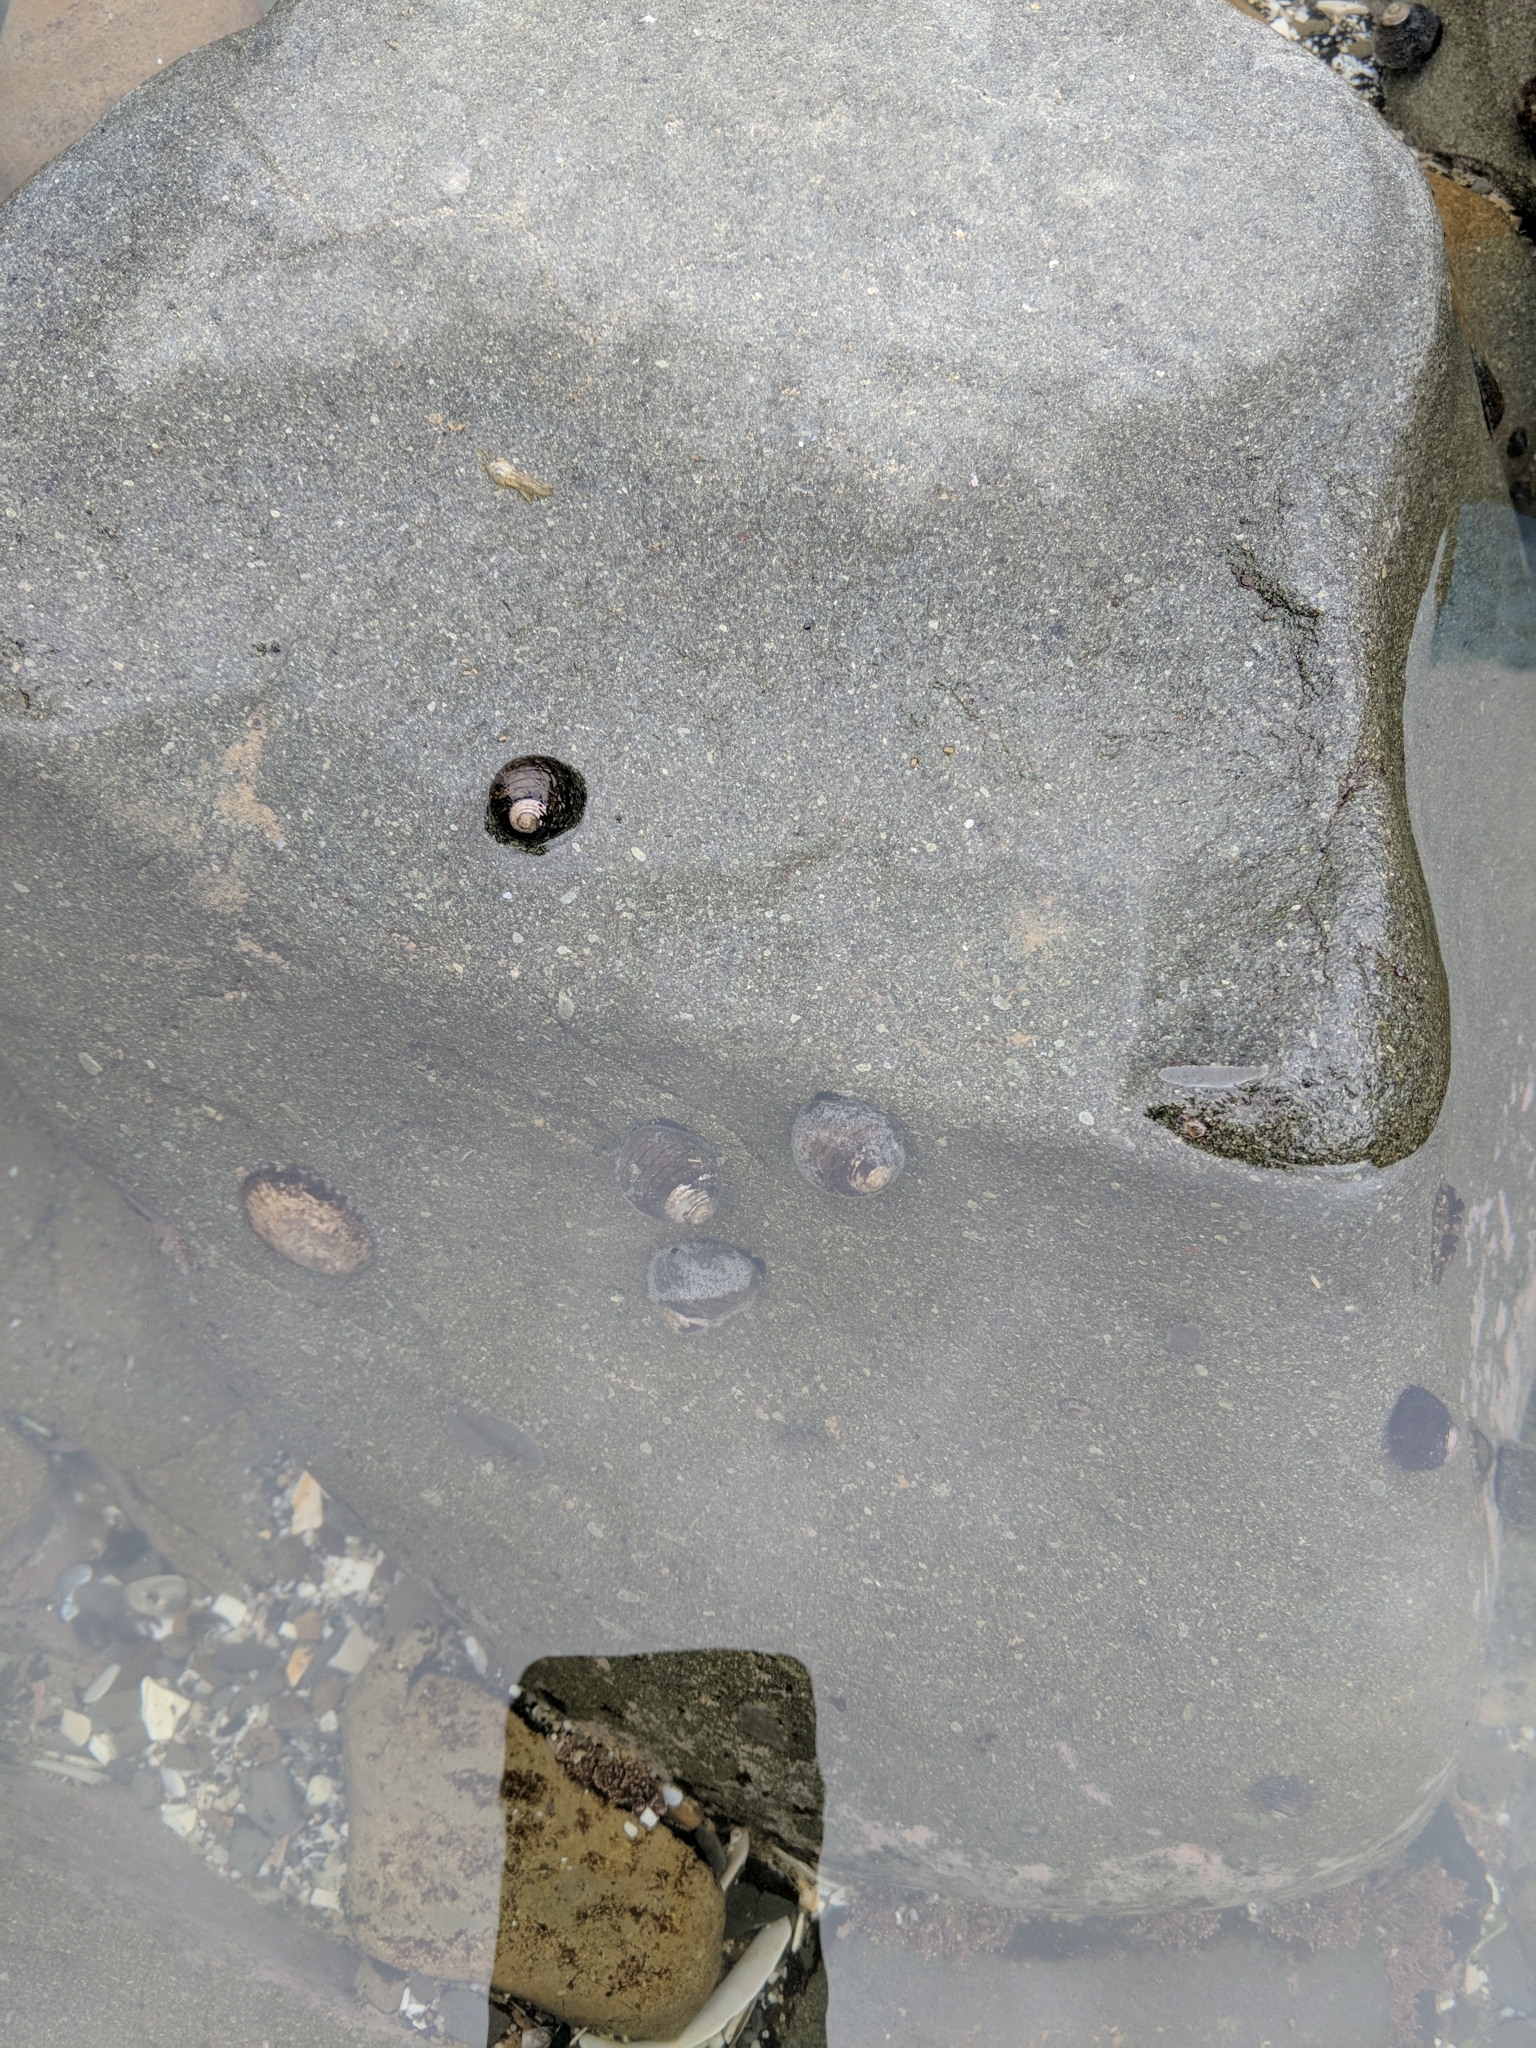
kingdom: Animalia
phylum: Mollusca
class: Gastropoda
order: Trochida
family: Trochidae
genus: Diloma
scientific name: Diloma aethiops
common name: Scorched monodont
